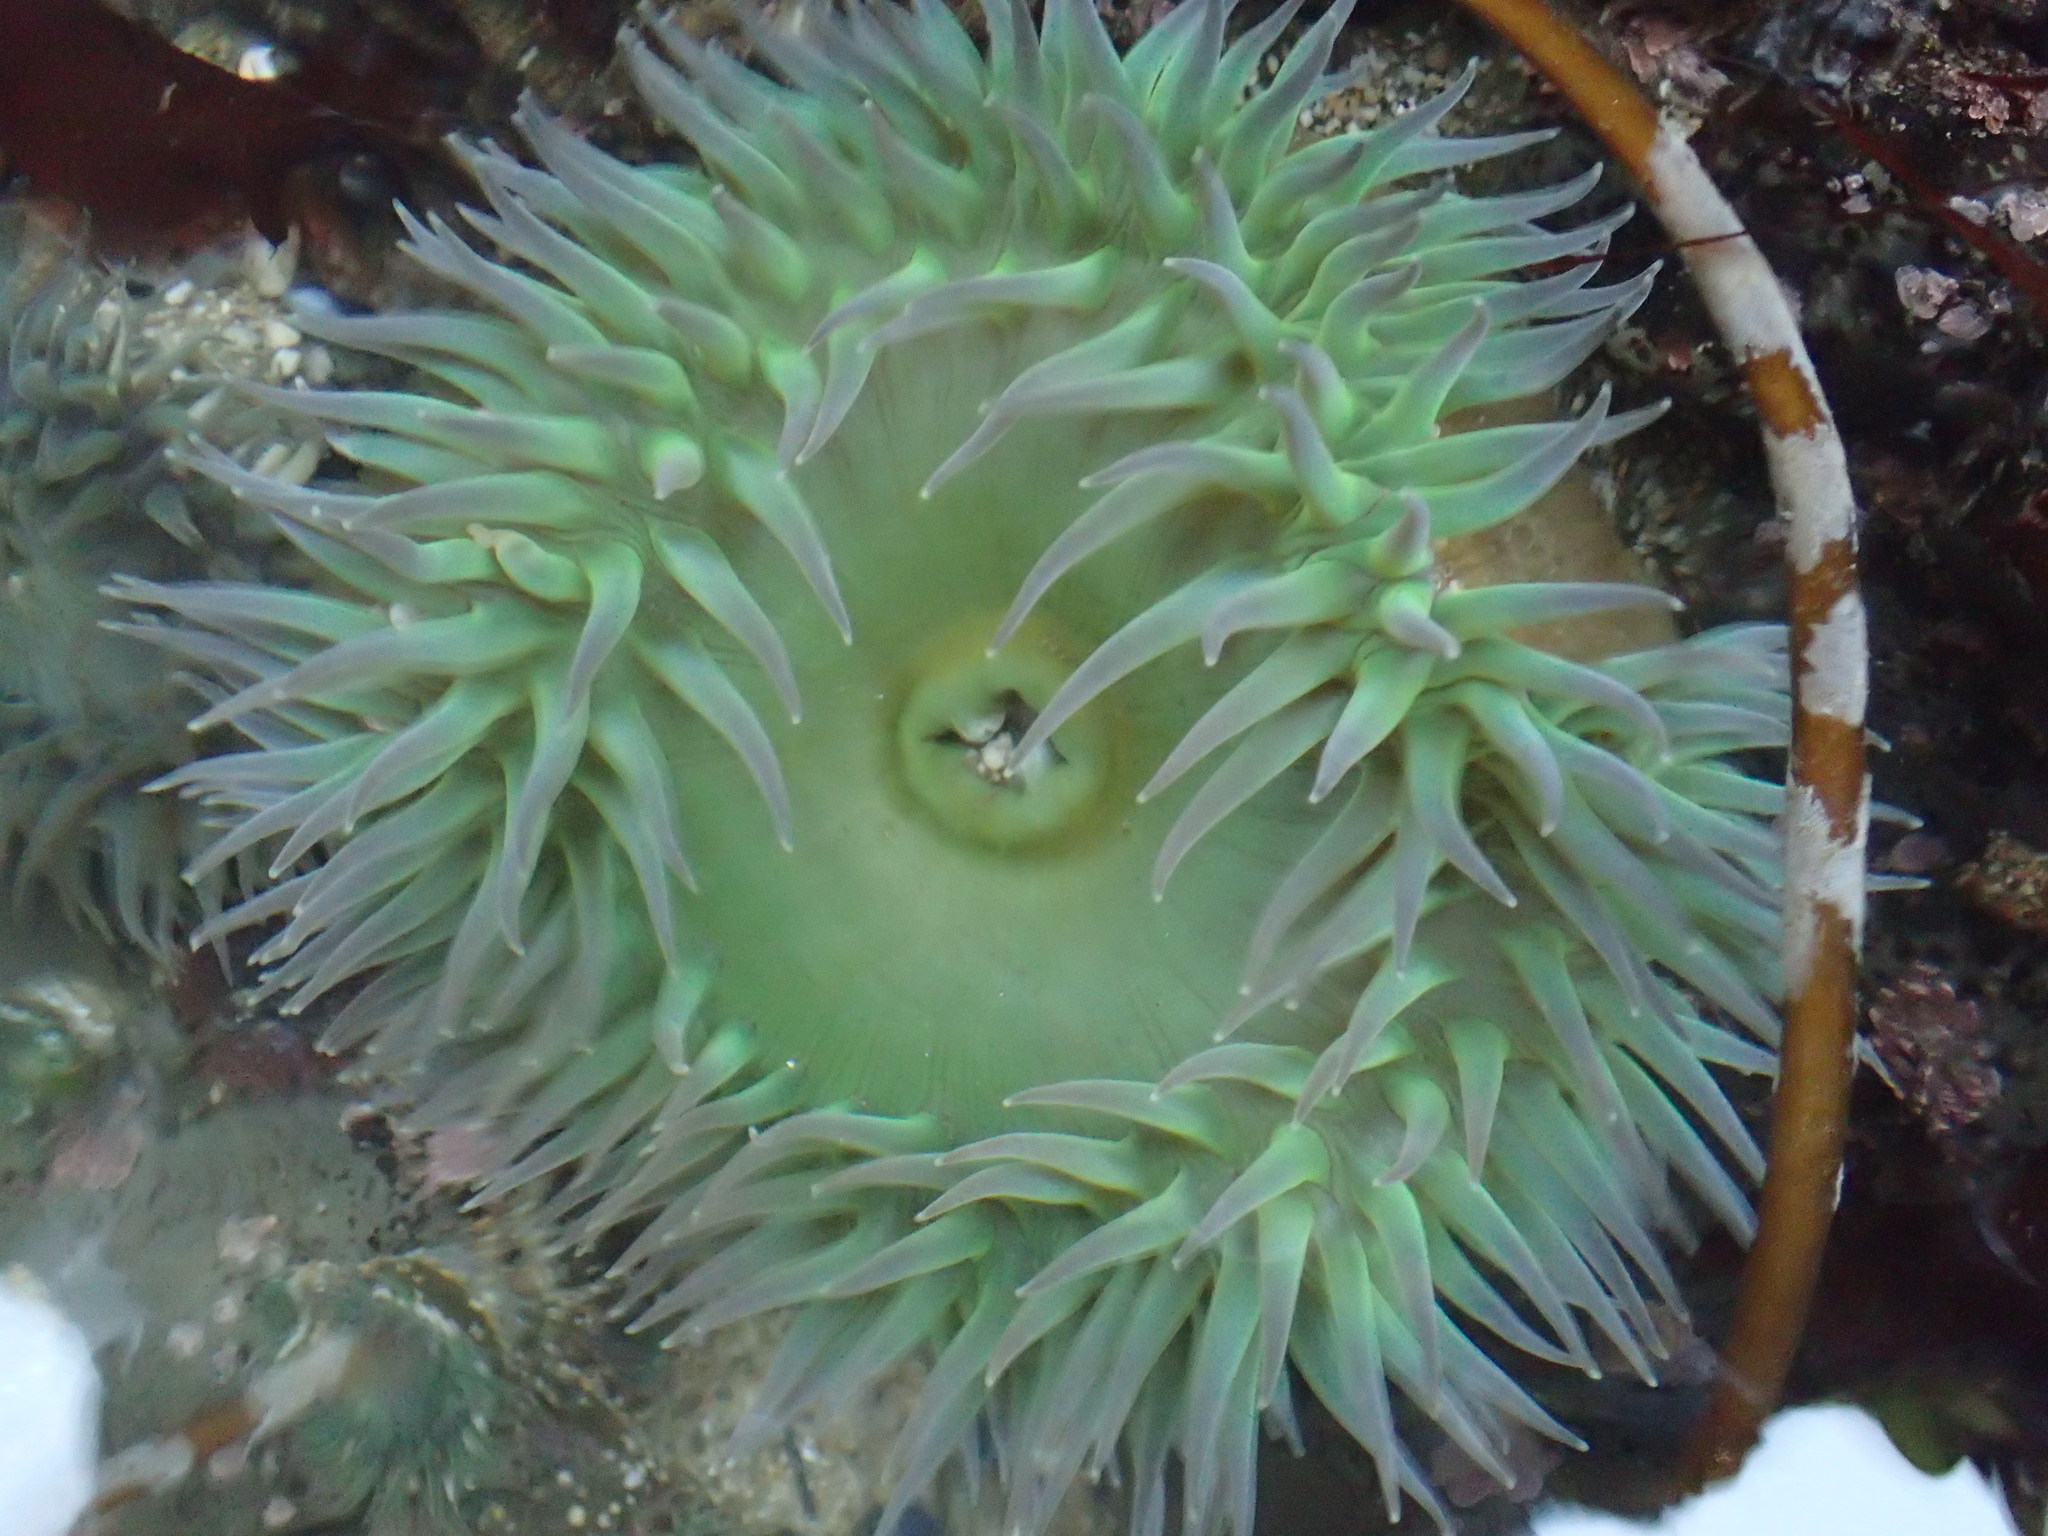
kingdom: Animalia
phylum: Cnidaria
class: Anthozoa
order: Actiniaria
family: Actiniidae
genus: Anthopleura
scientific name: Anthopleura xanthogrammica
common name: Giant green anemone
